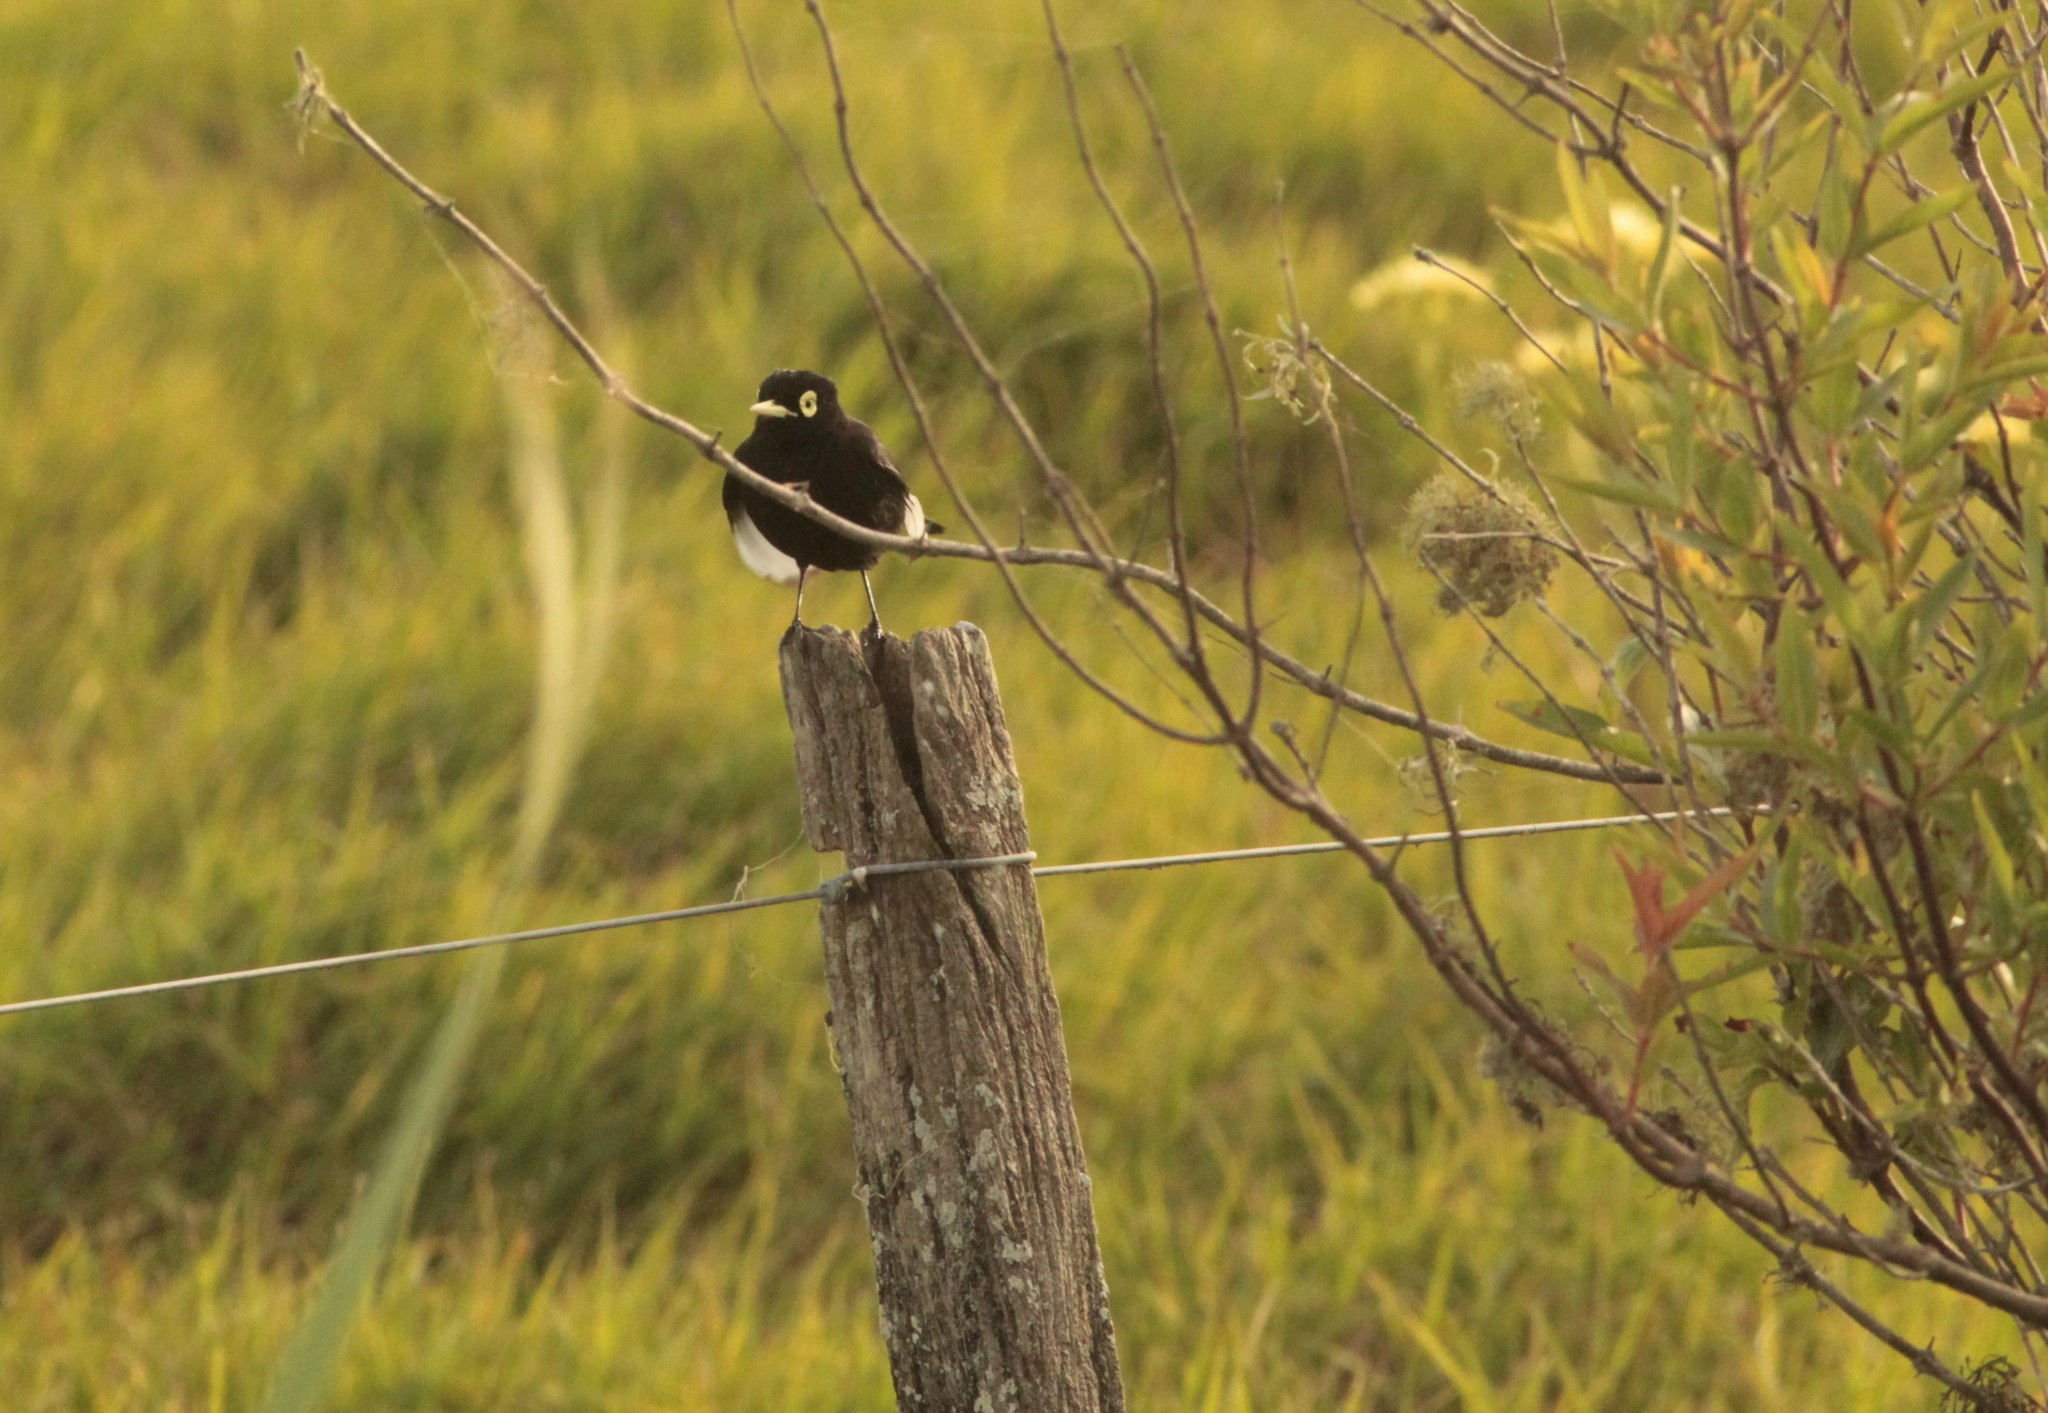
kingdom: Animalia
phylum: Chordata
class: Aves
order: Passeriformes
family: Tyrannidae
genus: Hymenops
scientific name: Hymenops perspicillatus
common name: Spectacled tyrant
